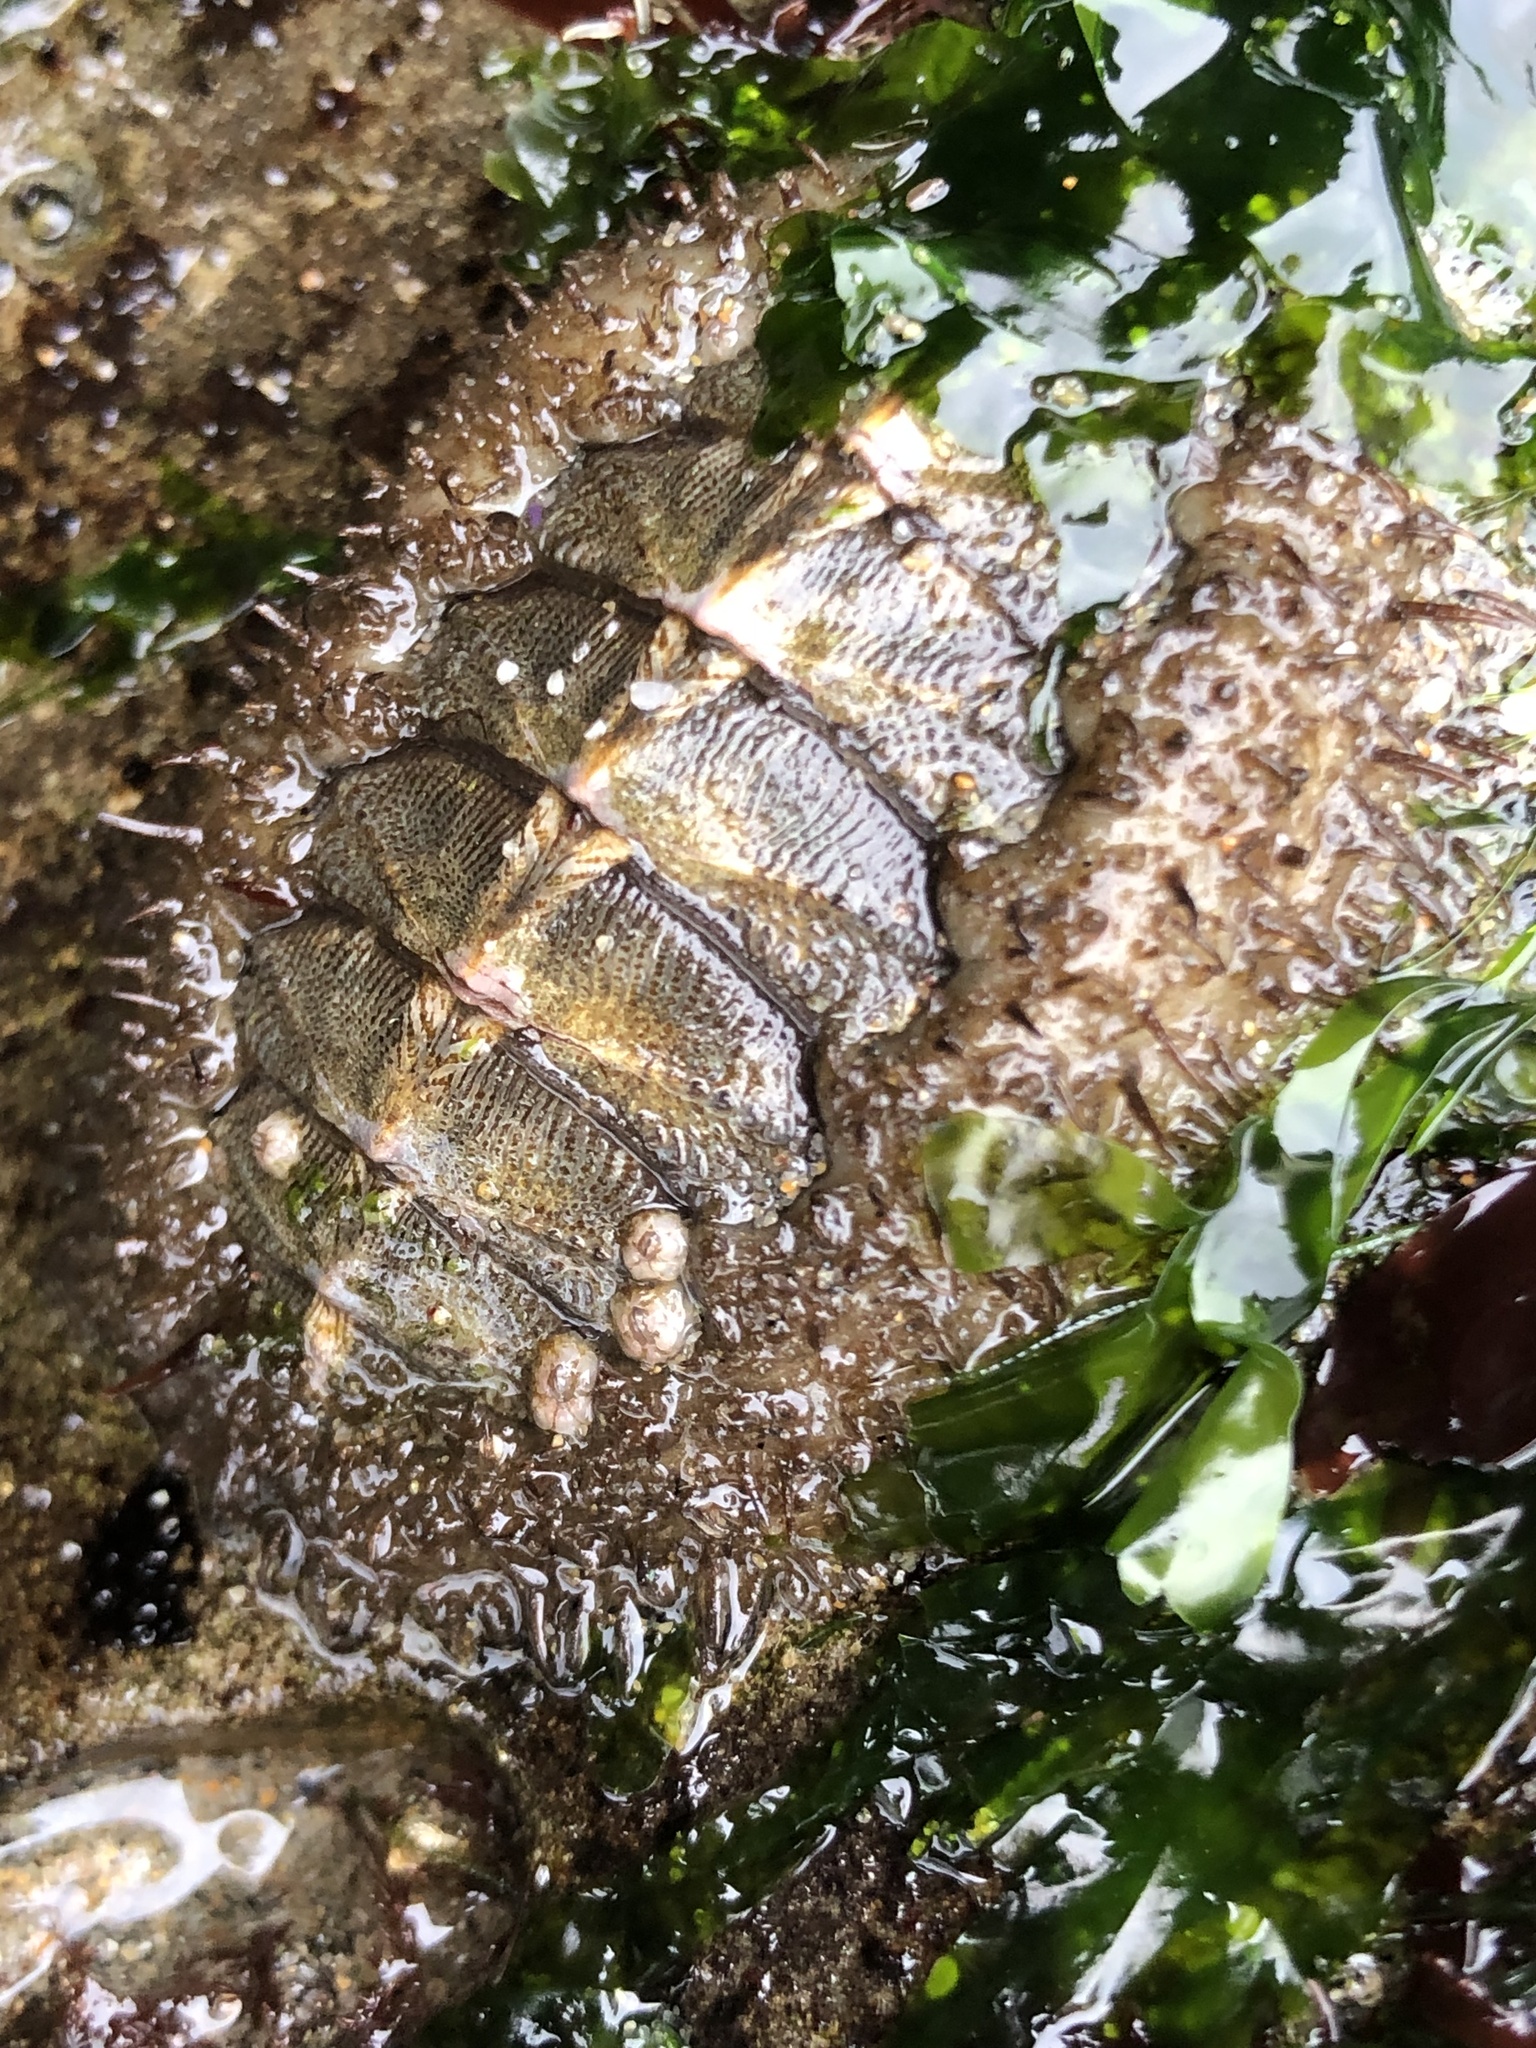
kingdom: Animalia
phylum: Mollusca
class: Polyplacophora
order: Chitonida
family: Mopaliidae
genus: Mopalia
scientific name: Mopalia muscosa
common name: Mossy chiton
